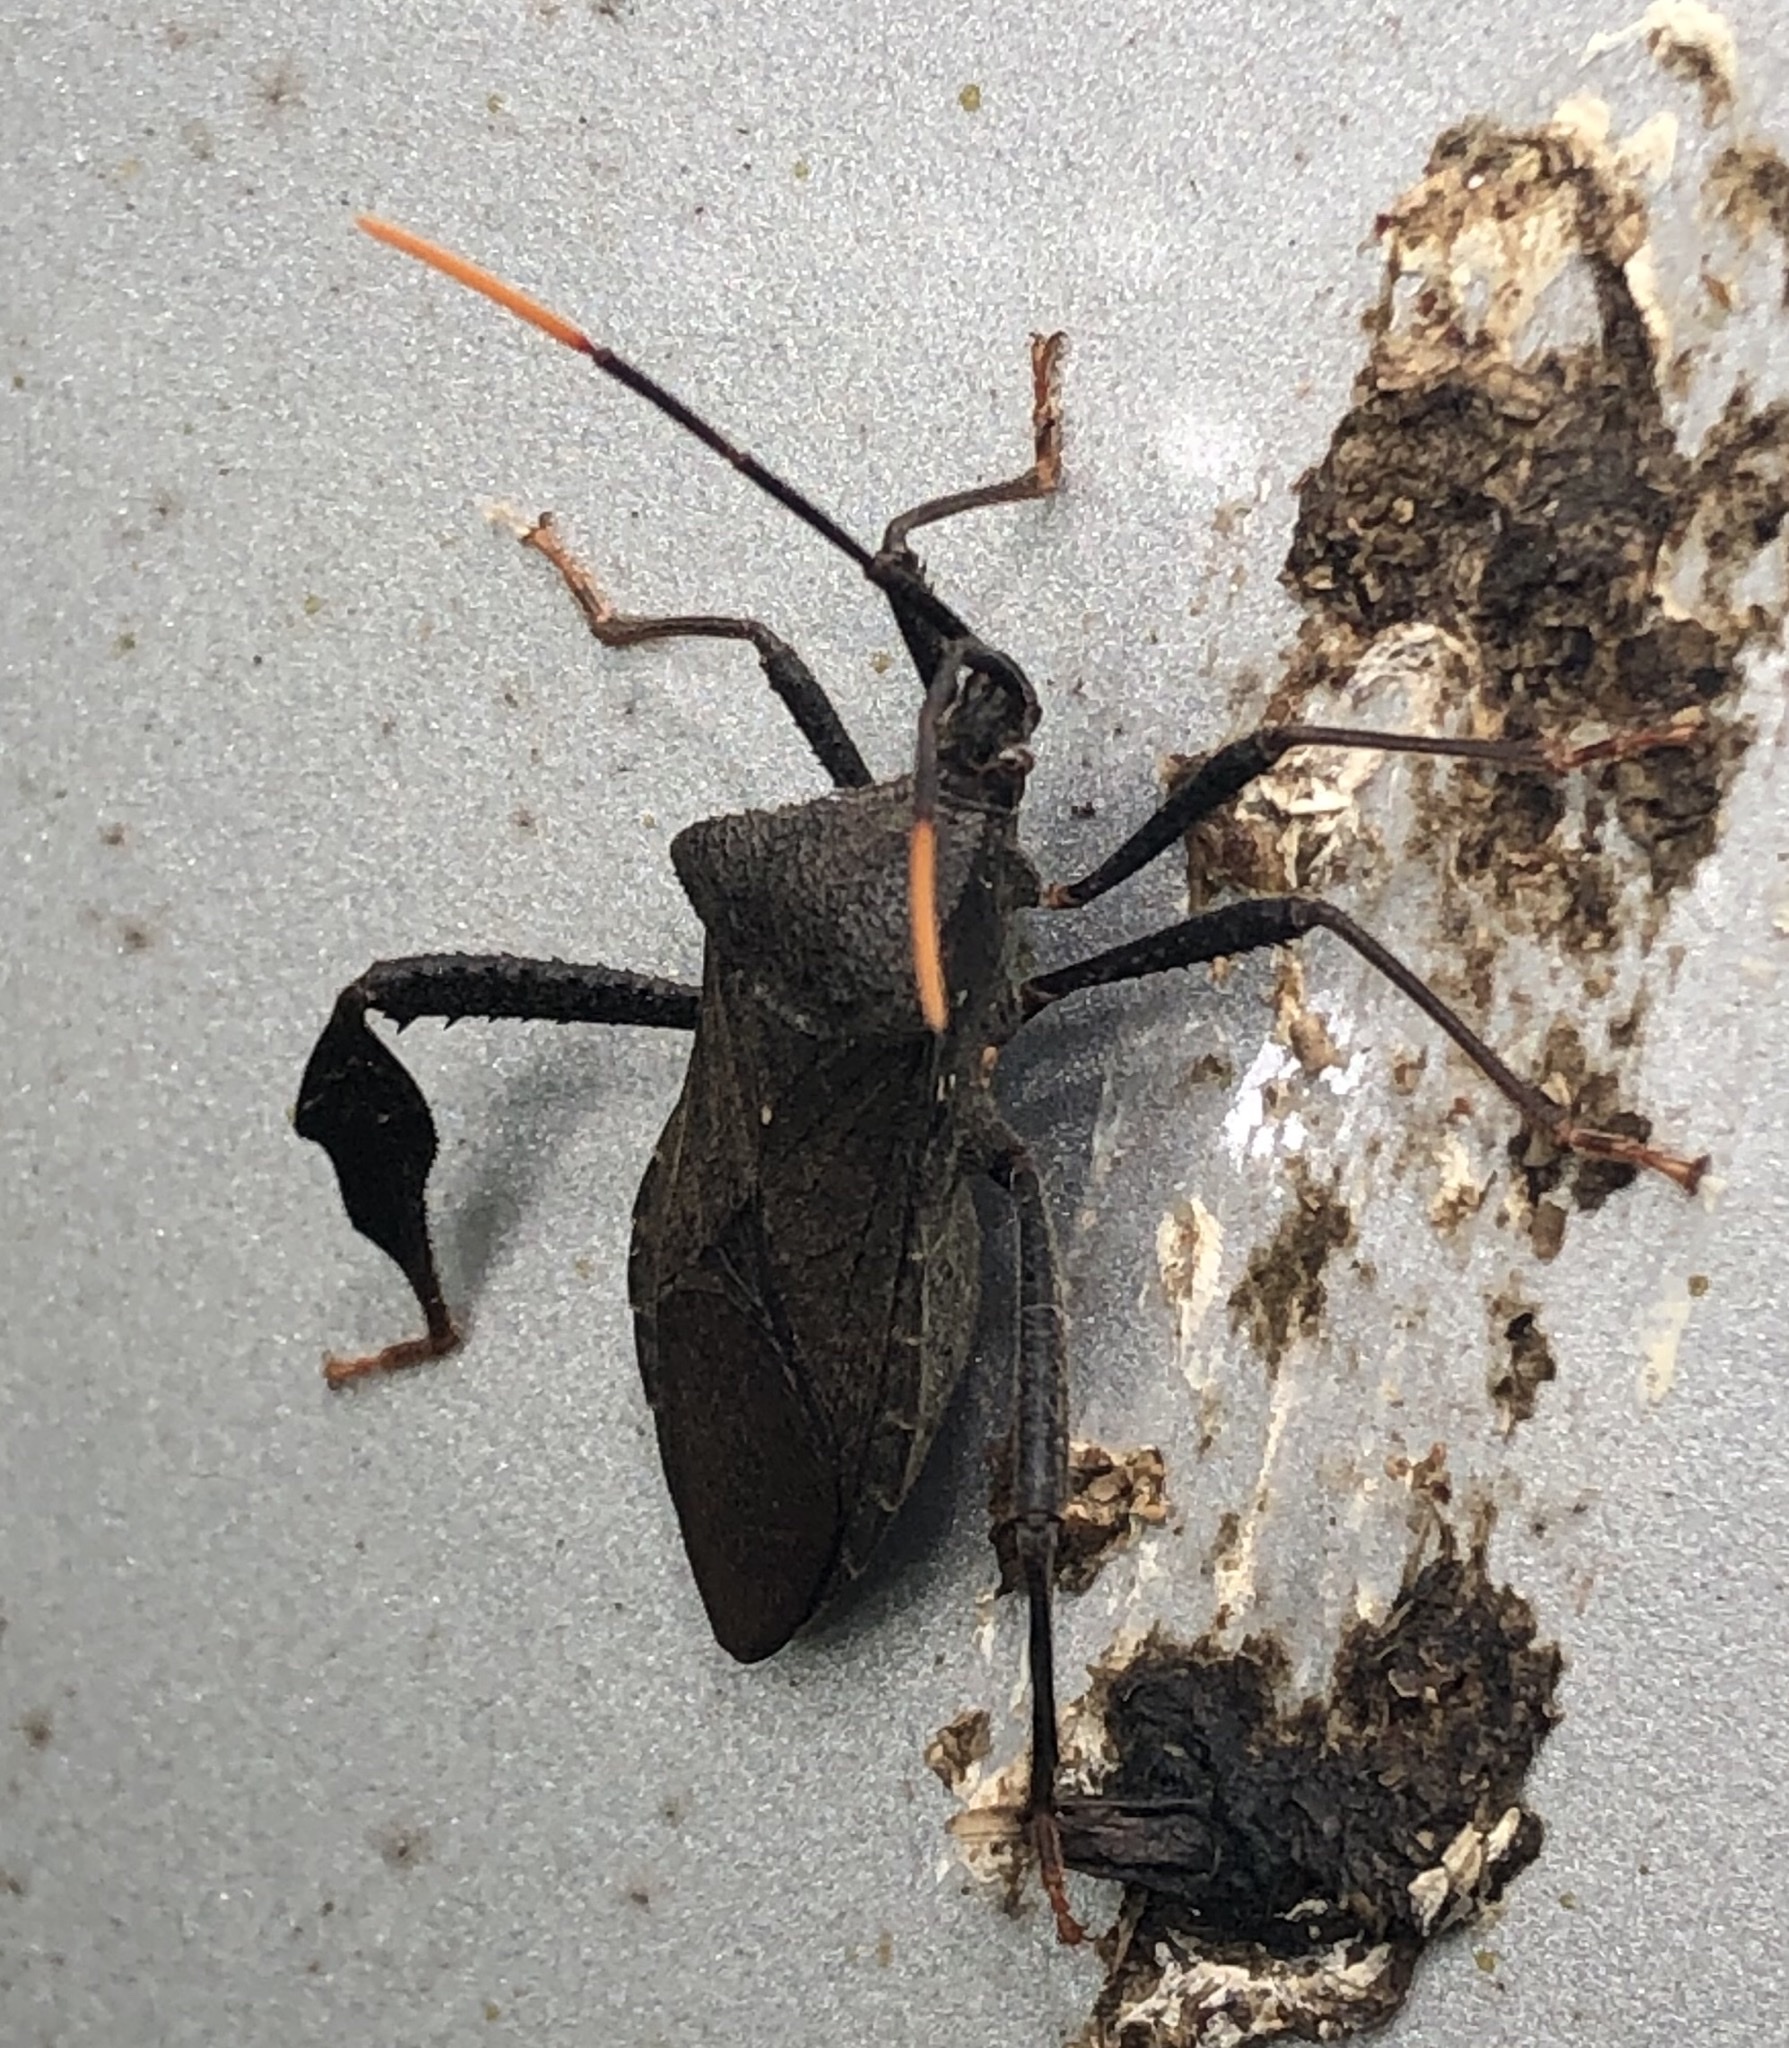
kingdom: Animalia
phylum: Arthropoda
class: Insecta
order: Hemiptera
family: Coreidae
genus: Acanthocephala
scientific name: Acanthocephala terminalis
